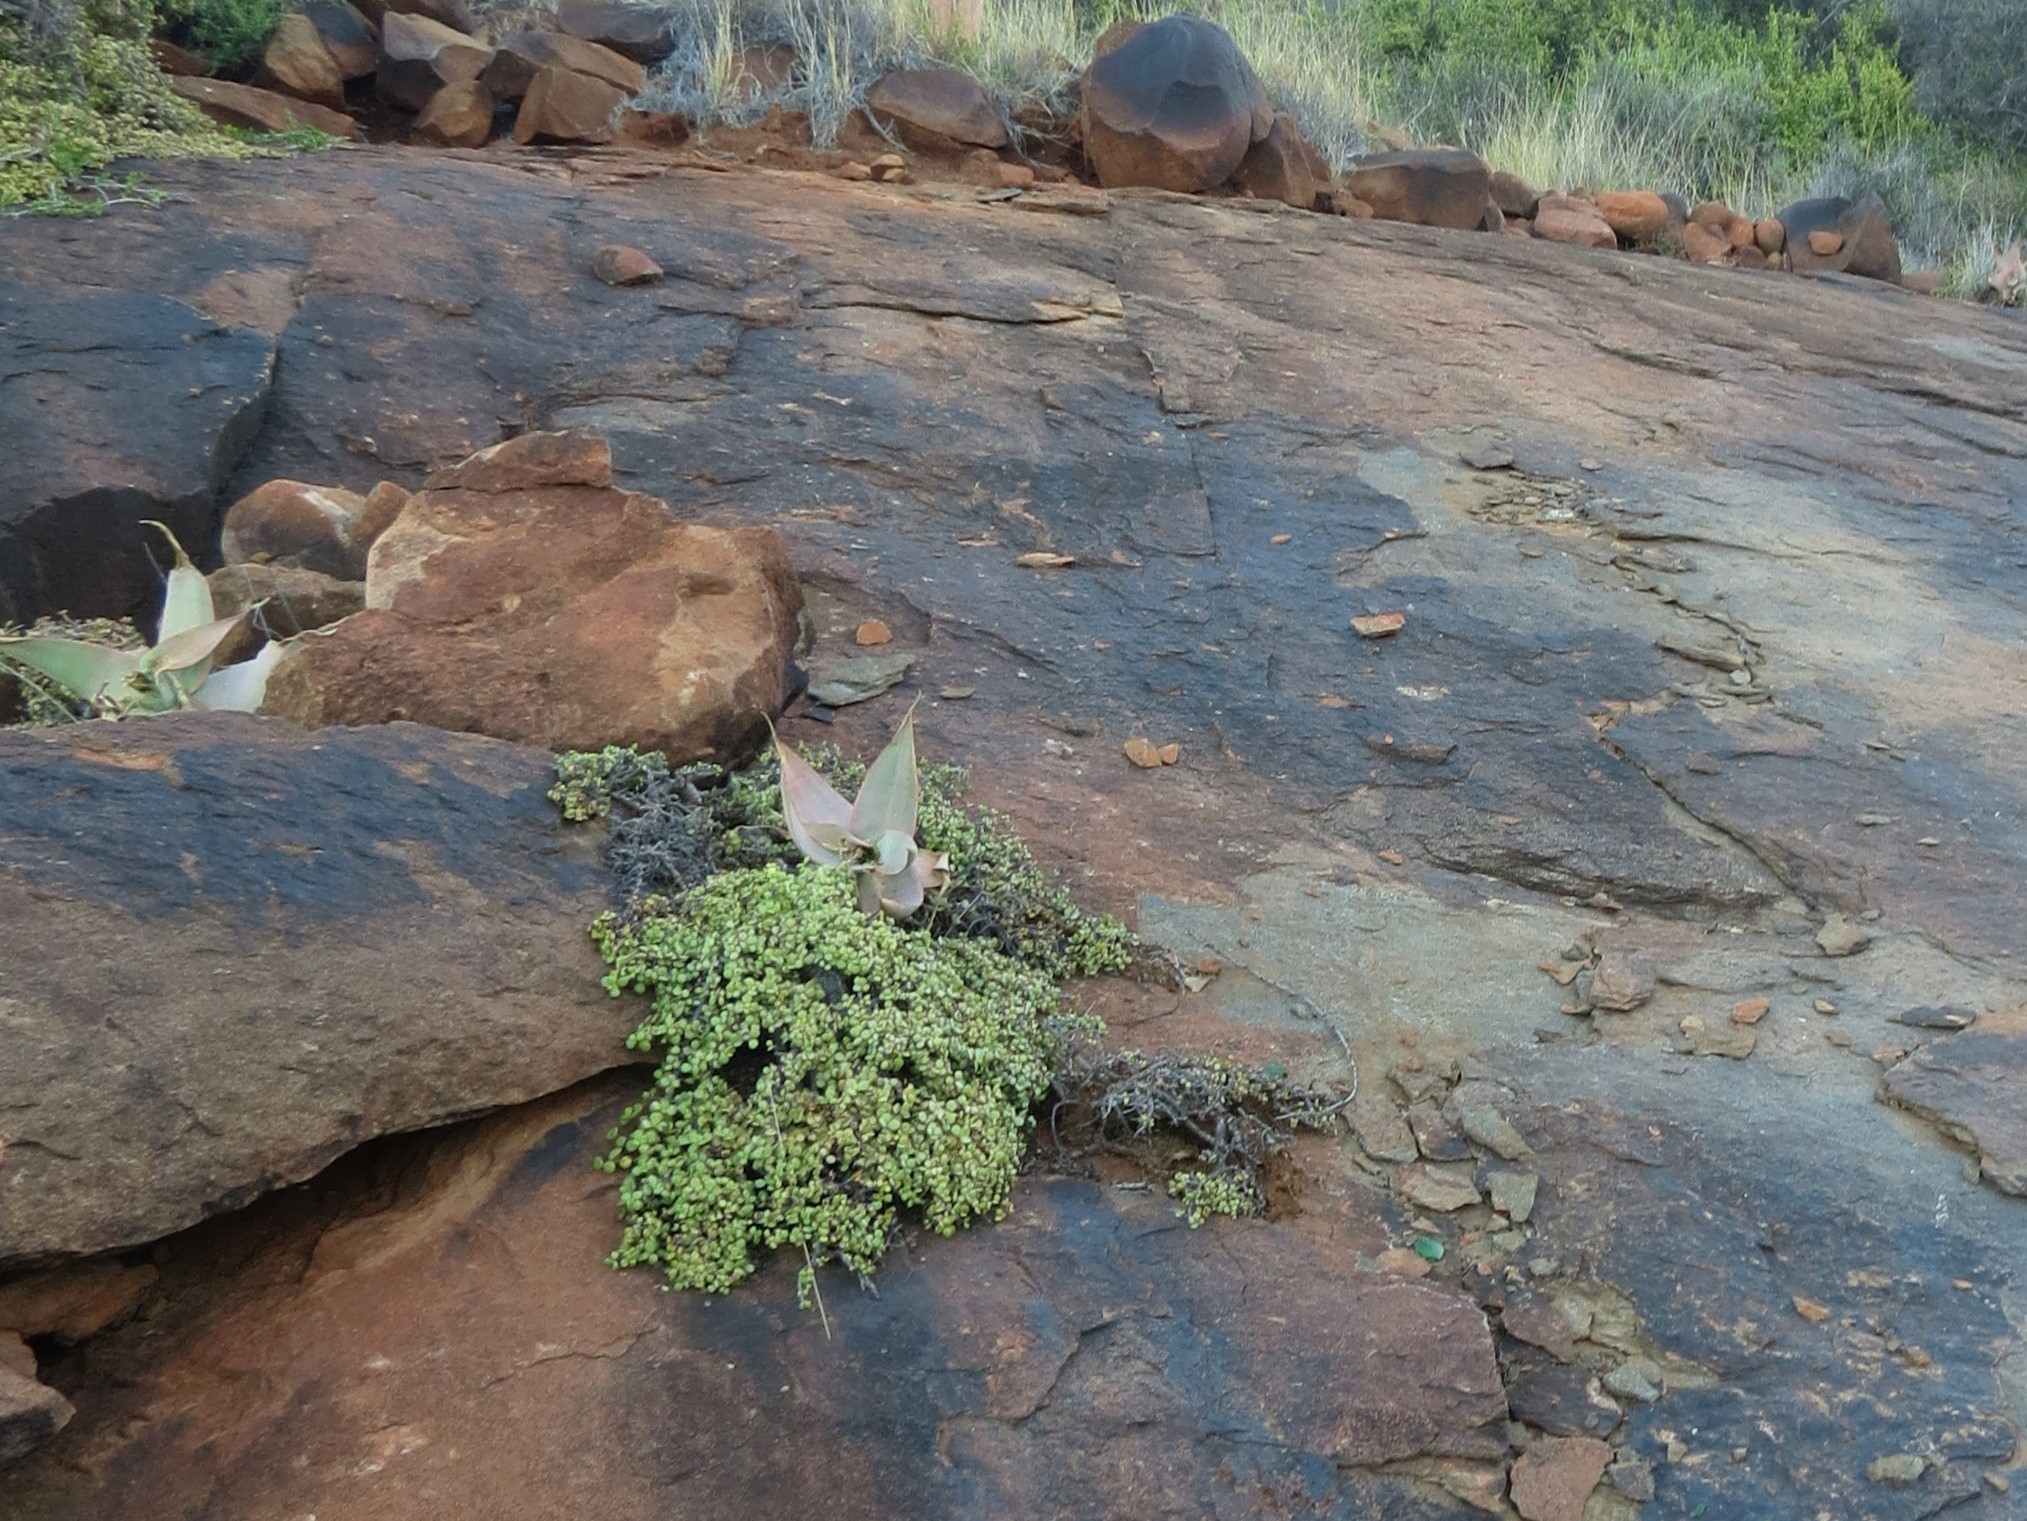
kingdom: Plantae
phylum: Tracheophyta
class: Magnoliopsida
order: Caryophyllales
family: Didiereaceae
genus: Portulacaria
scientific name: Portulacaria afra
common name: Elephant-bush
